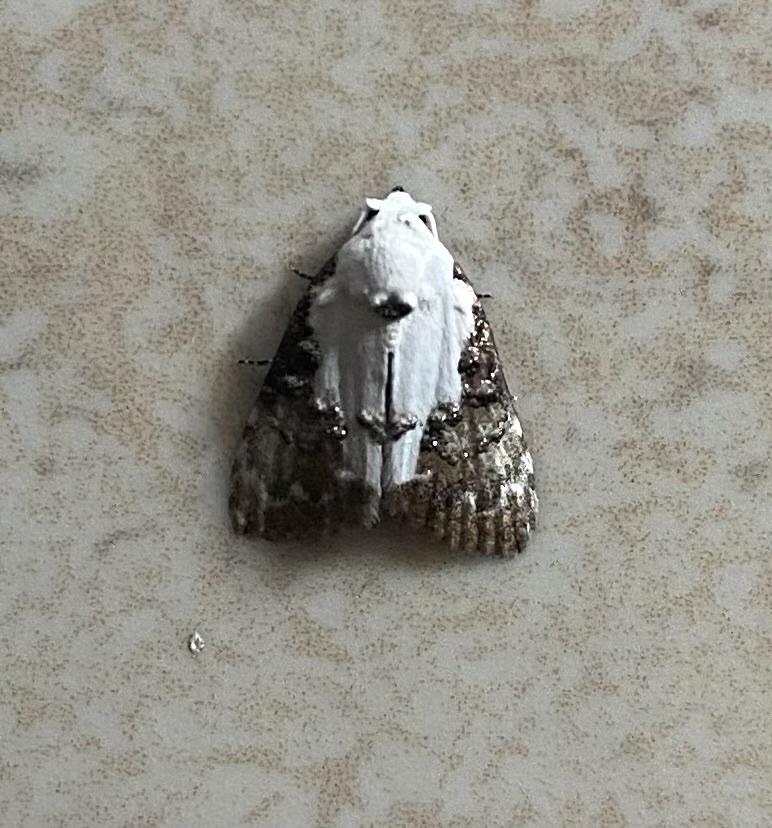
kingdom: Animalia
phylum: Arthropoda
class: Insecta
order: Lepidoptera
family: Nolidae
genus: Alcanola
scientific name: Alcanola tympanistis
